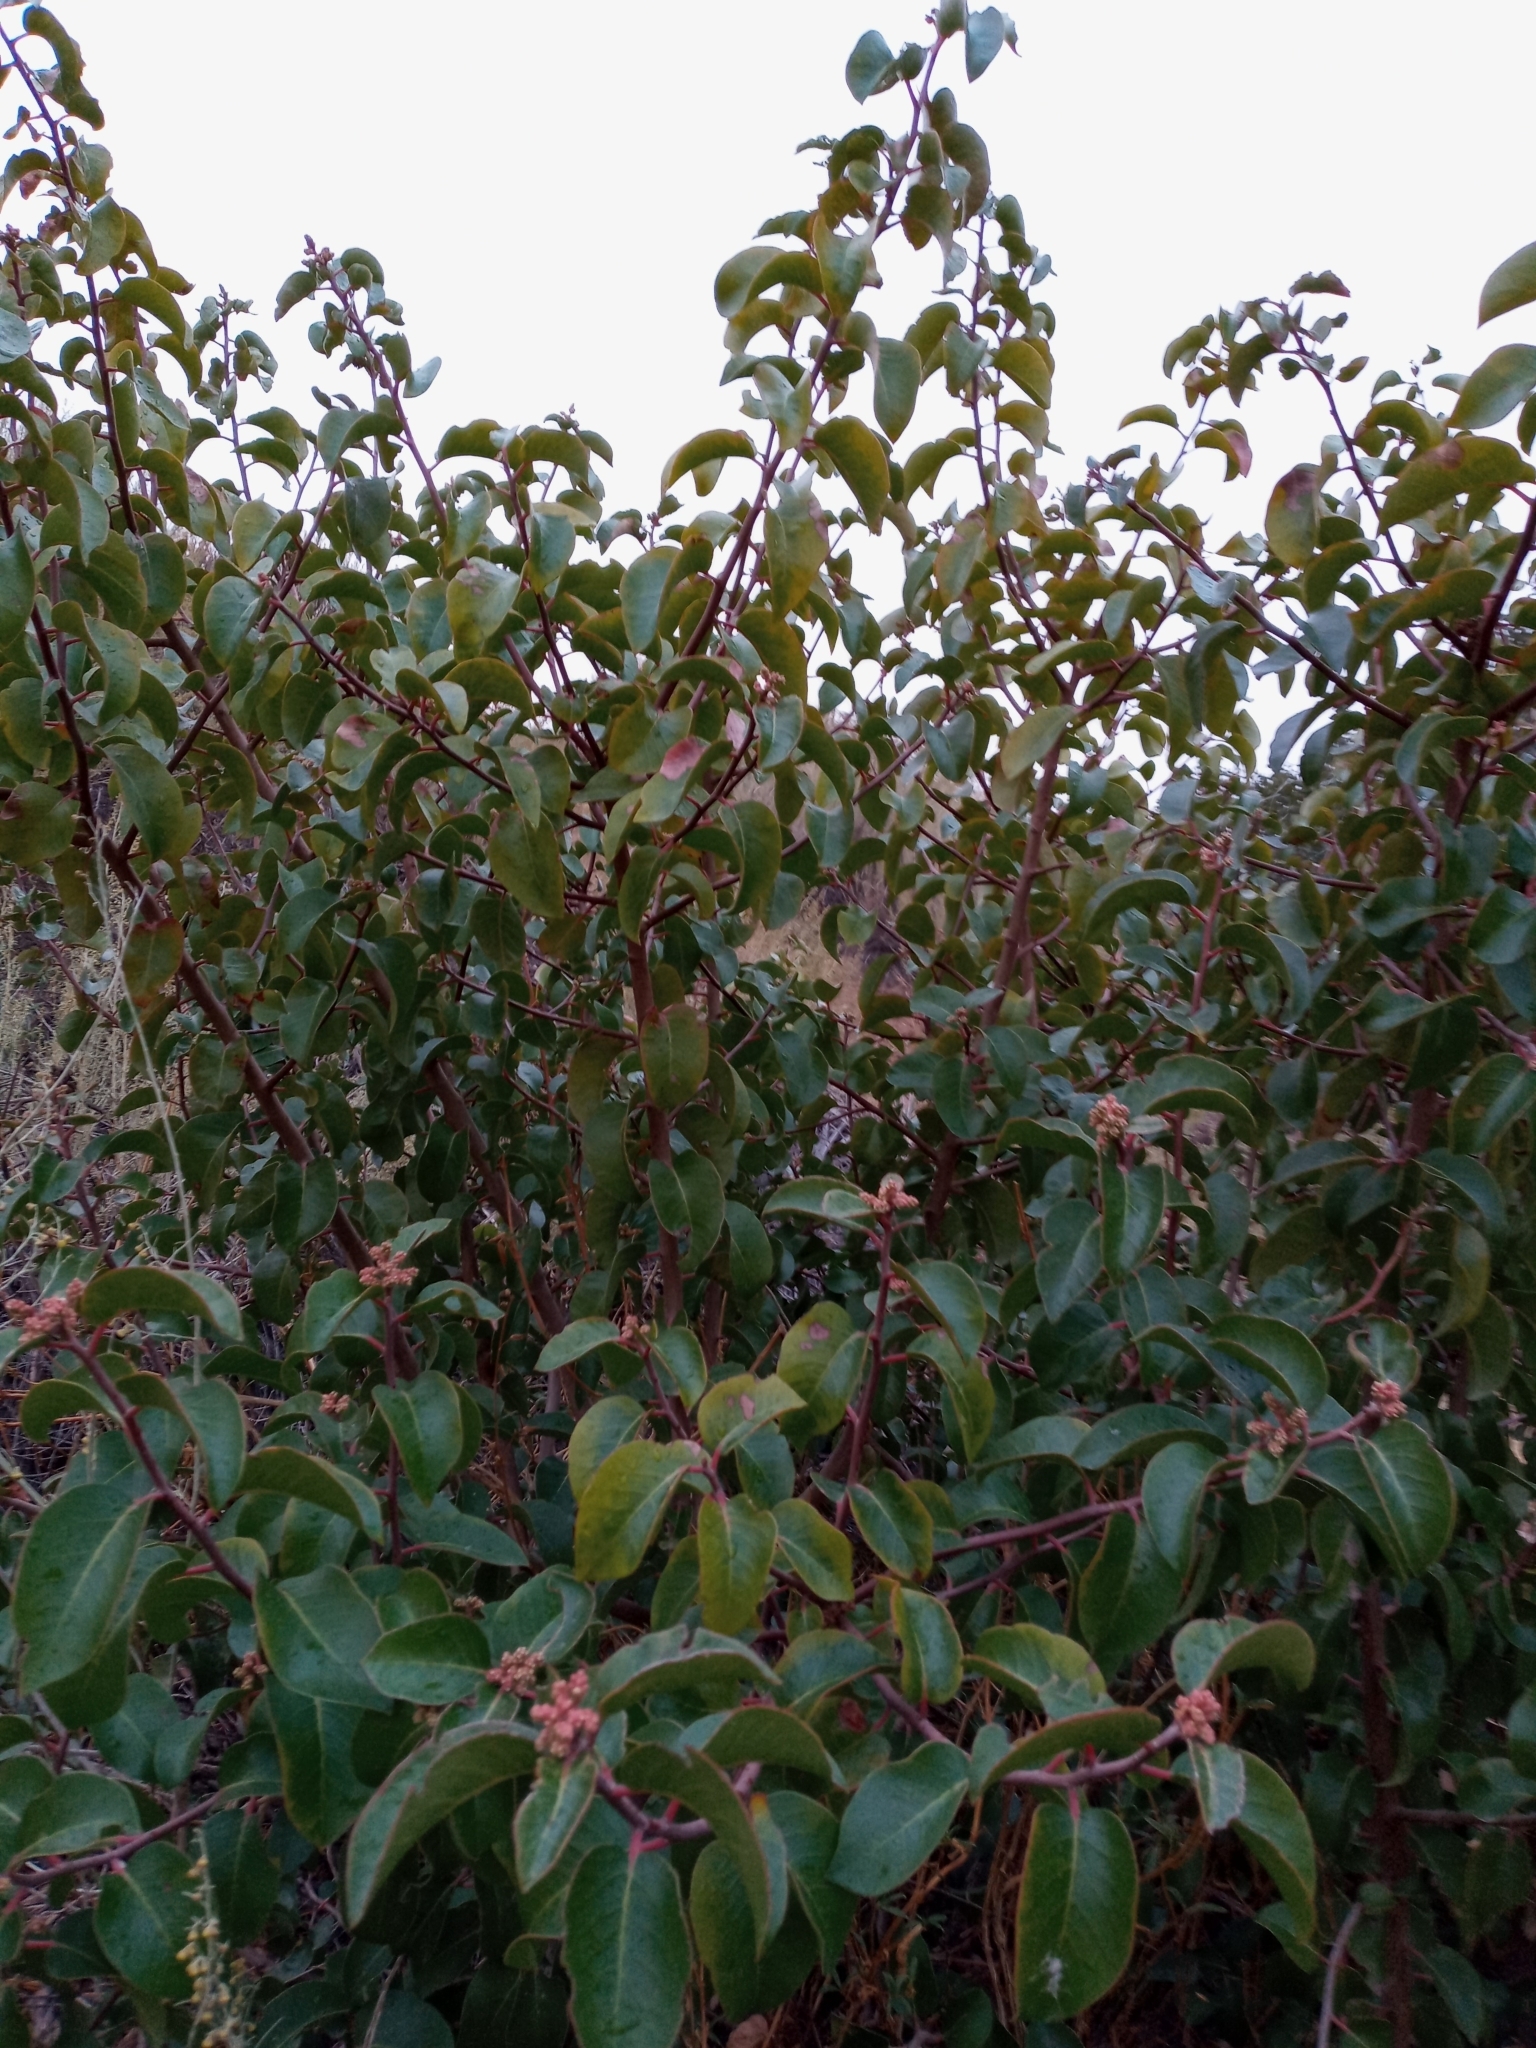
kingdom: Plantae
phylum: Tracheophyta
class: Magnoliopsida
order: Sapindales
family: Anacardiaceae
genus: Rhus
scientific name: Rhus ovata
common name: Sugar sumac
